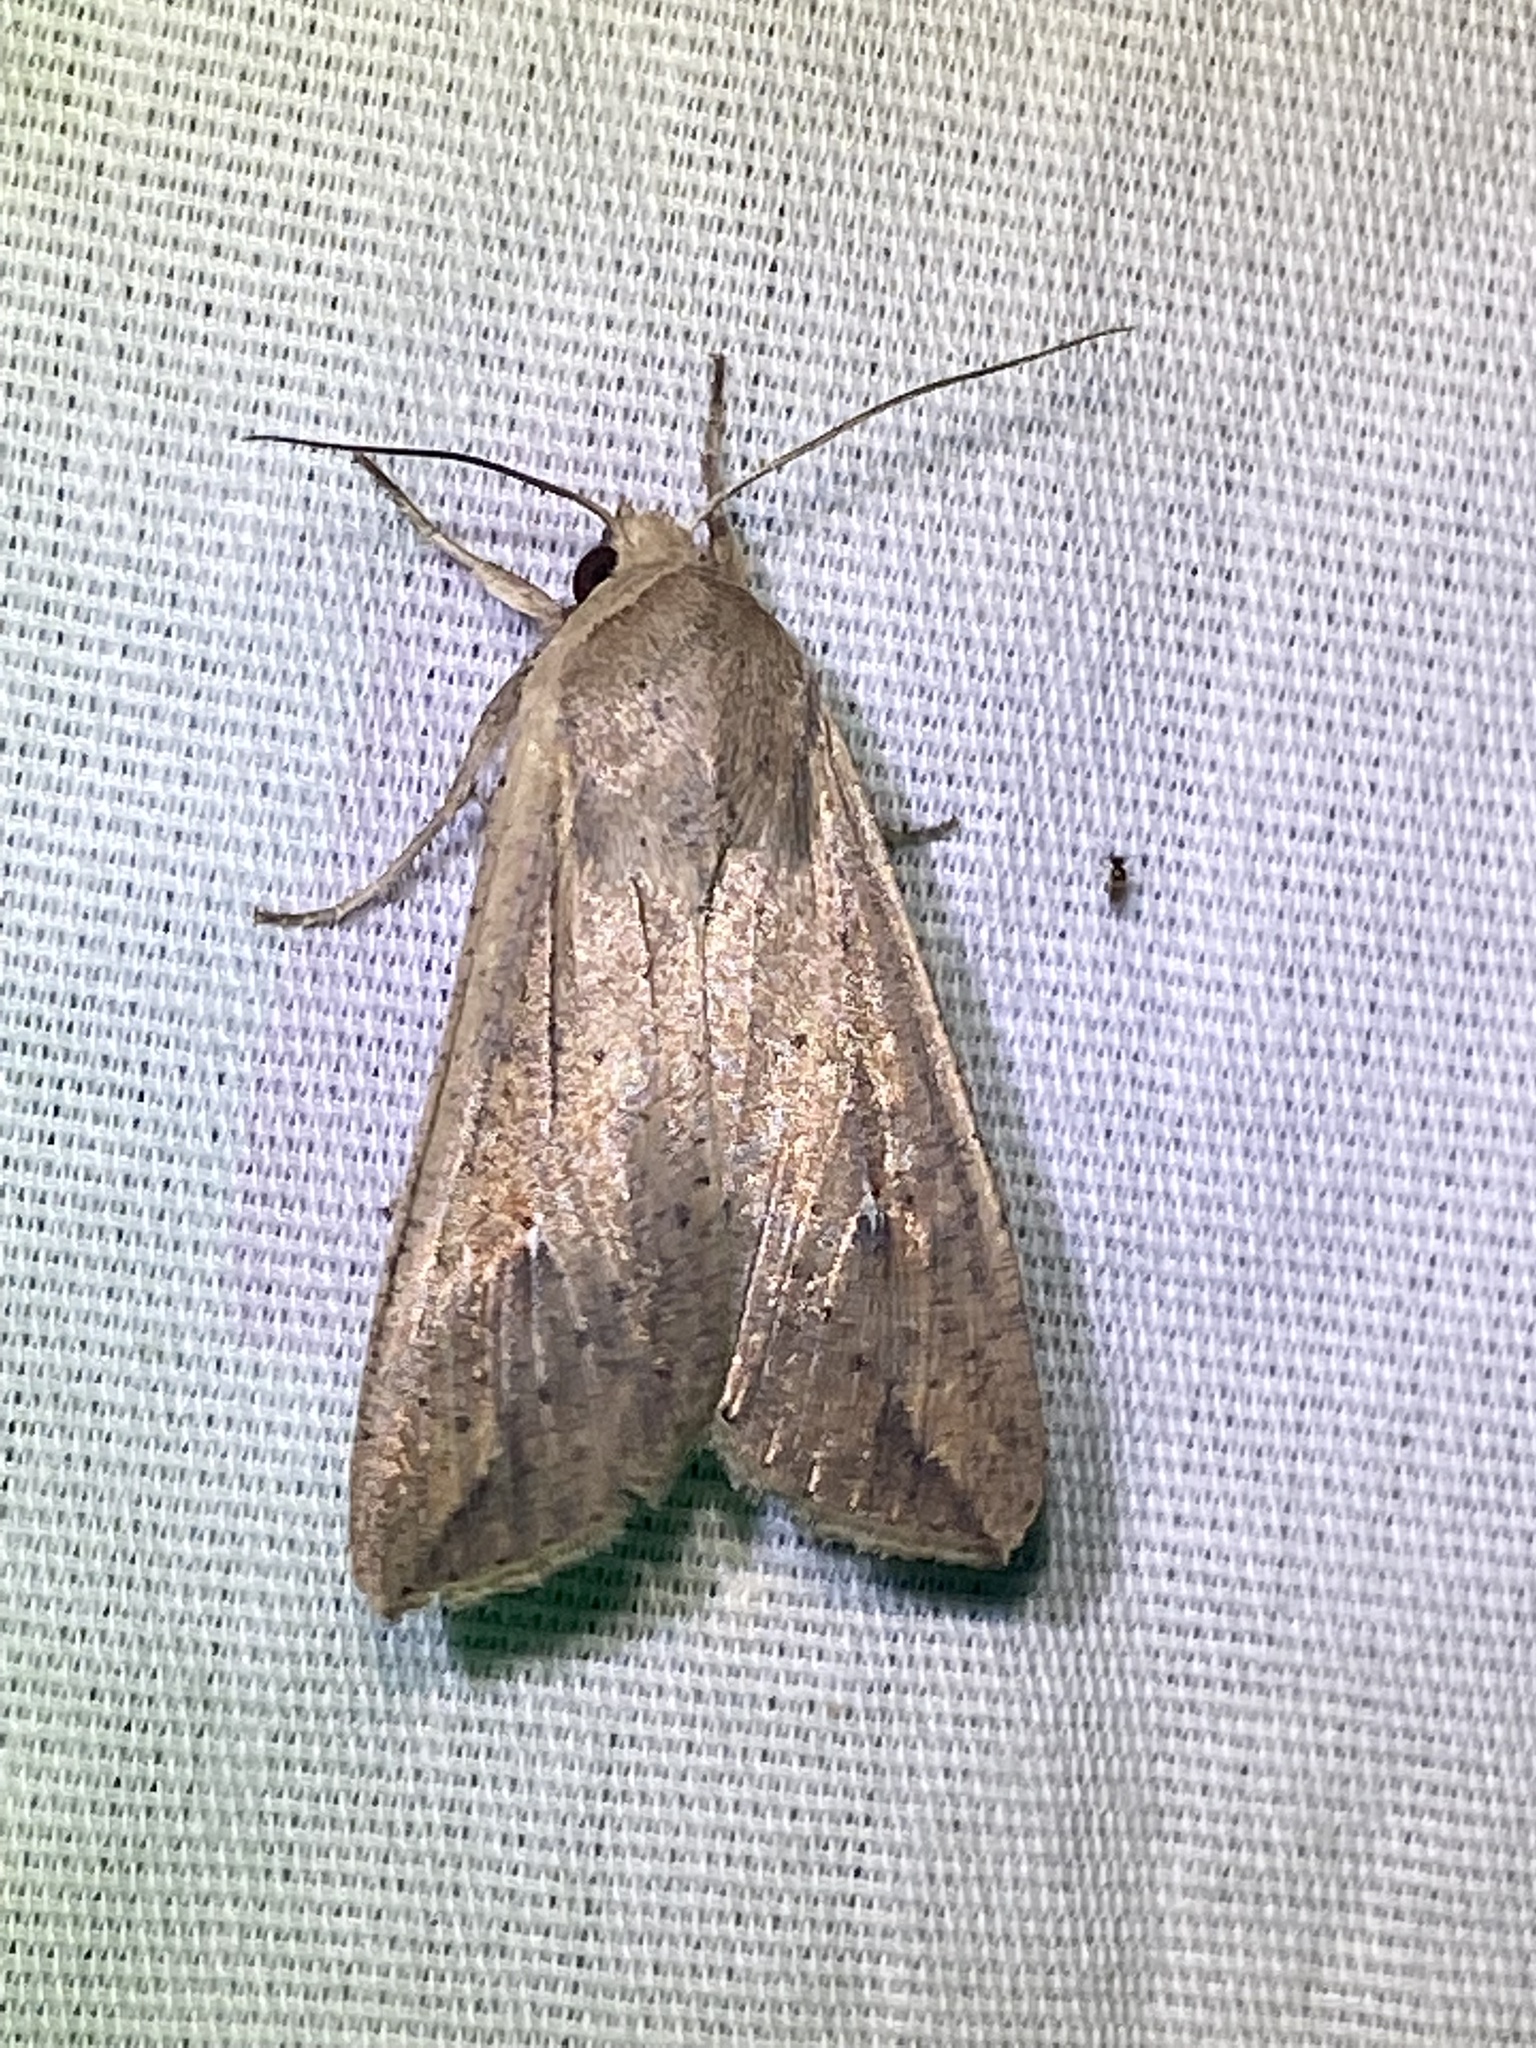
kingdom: Animalia
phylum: Arthropoda
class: Insecta
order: Lepidoptera
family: Noctuidae
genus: Mythimna
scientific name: Mythimna unipuncta
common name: White-speck
